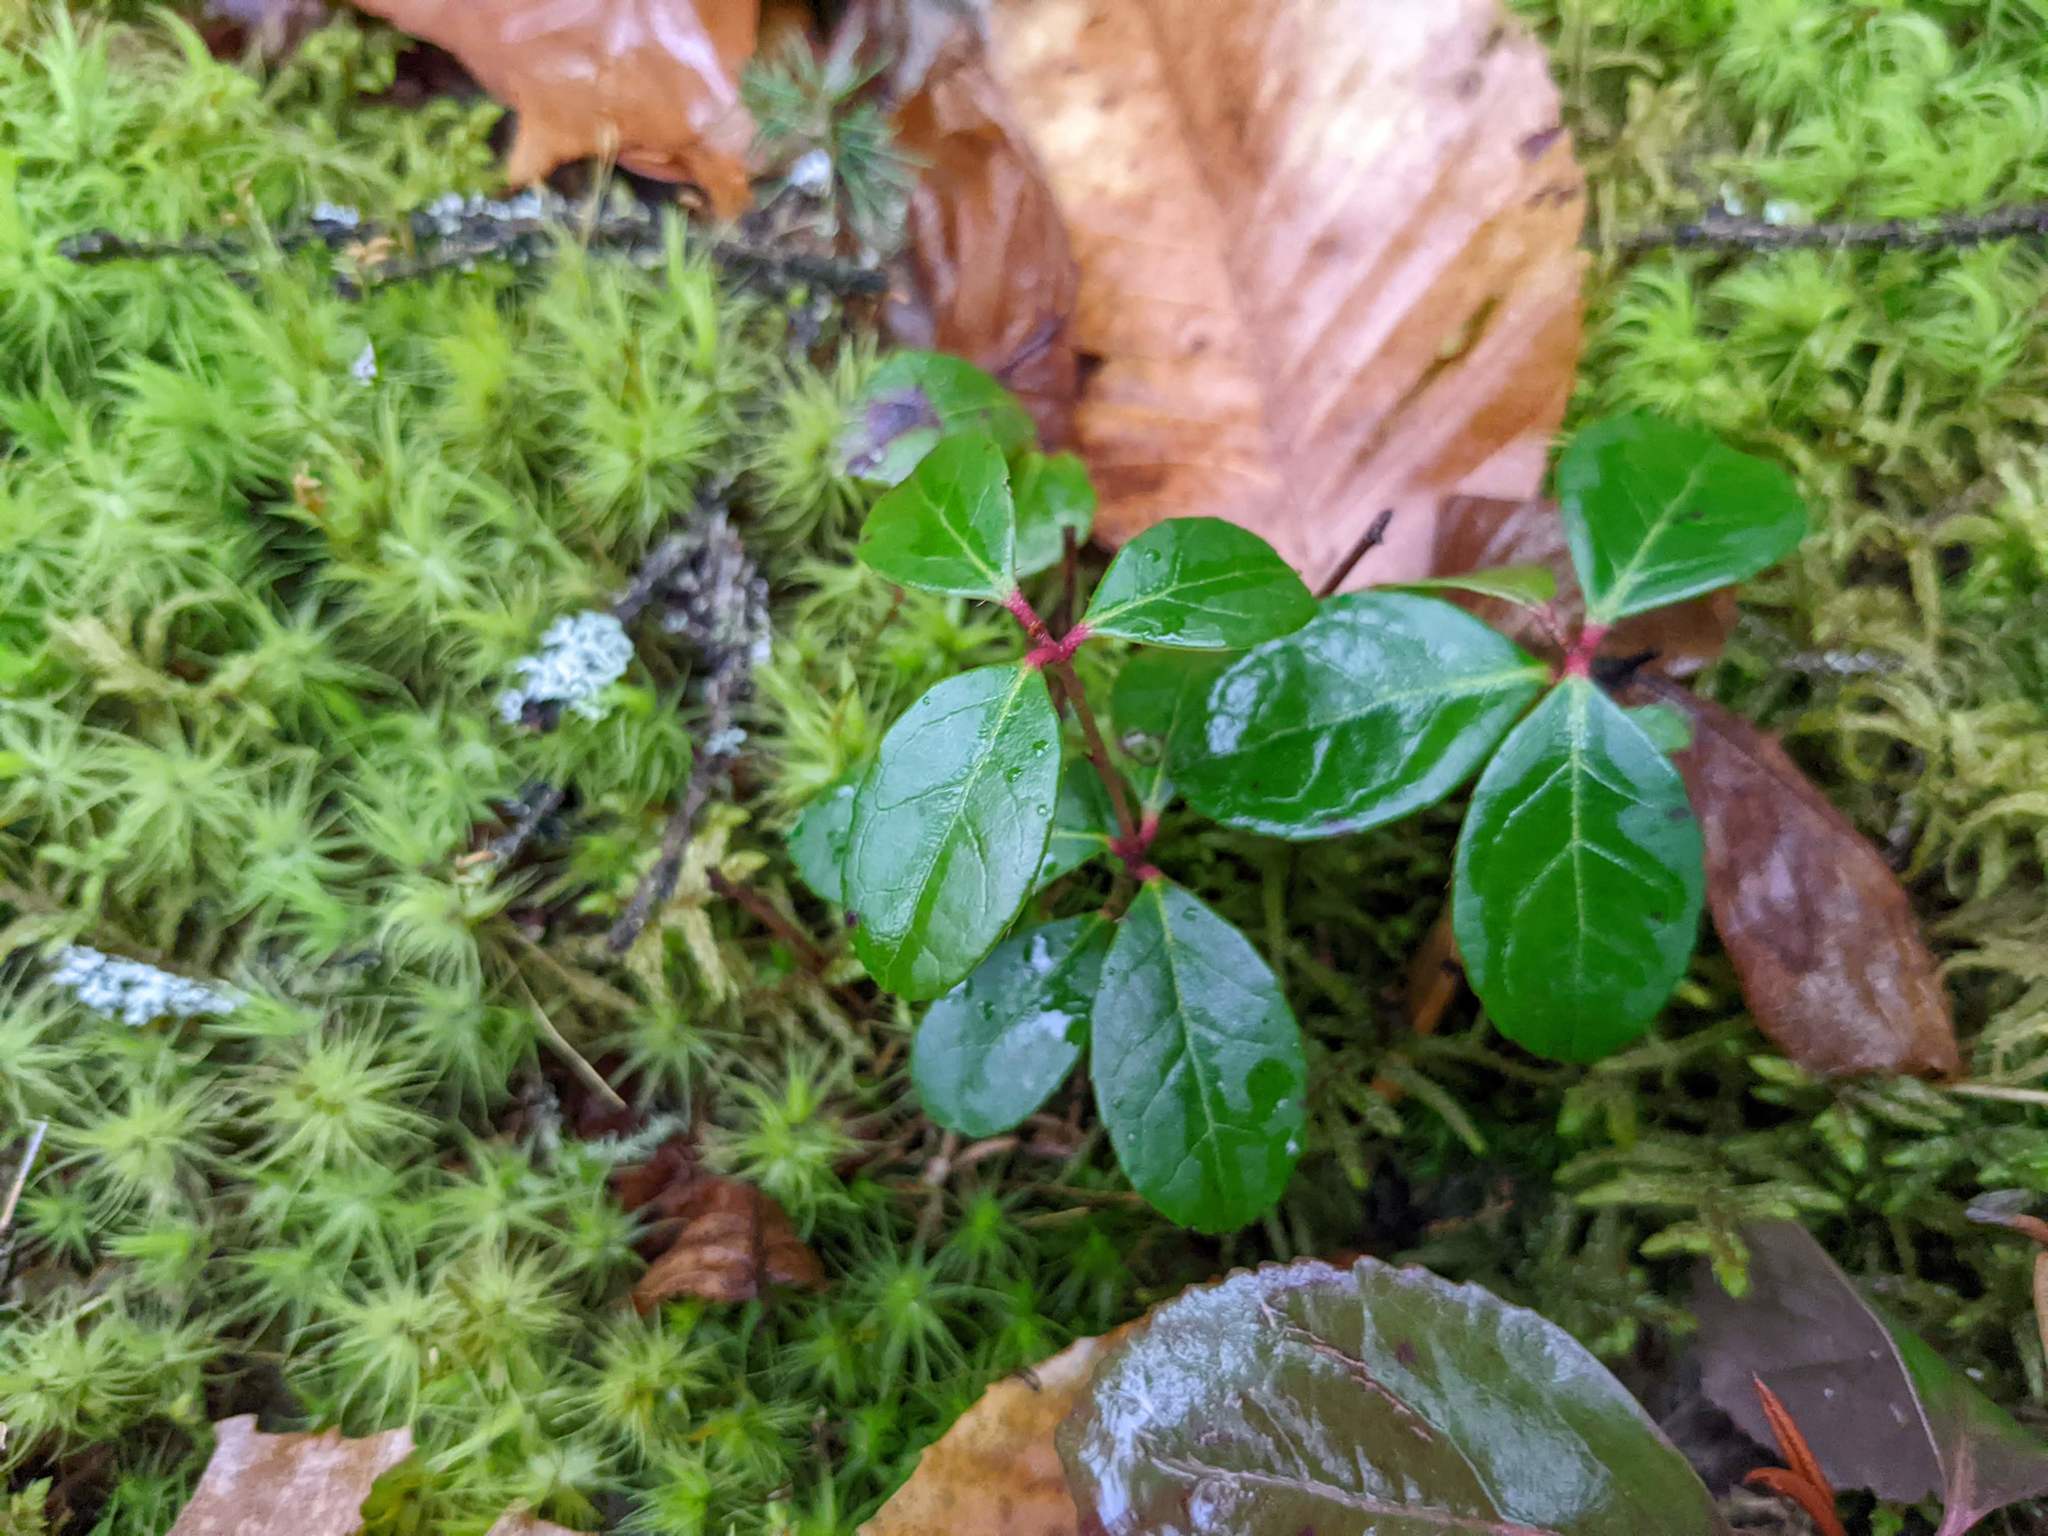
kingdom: Plantae
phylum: Tracheophyta
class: Magnoliopsida
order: Ericales
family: Ericaceae
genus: Gaultheria
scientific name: Gaultheria procumbens
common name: Checkerberry
